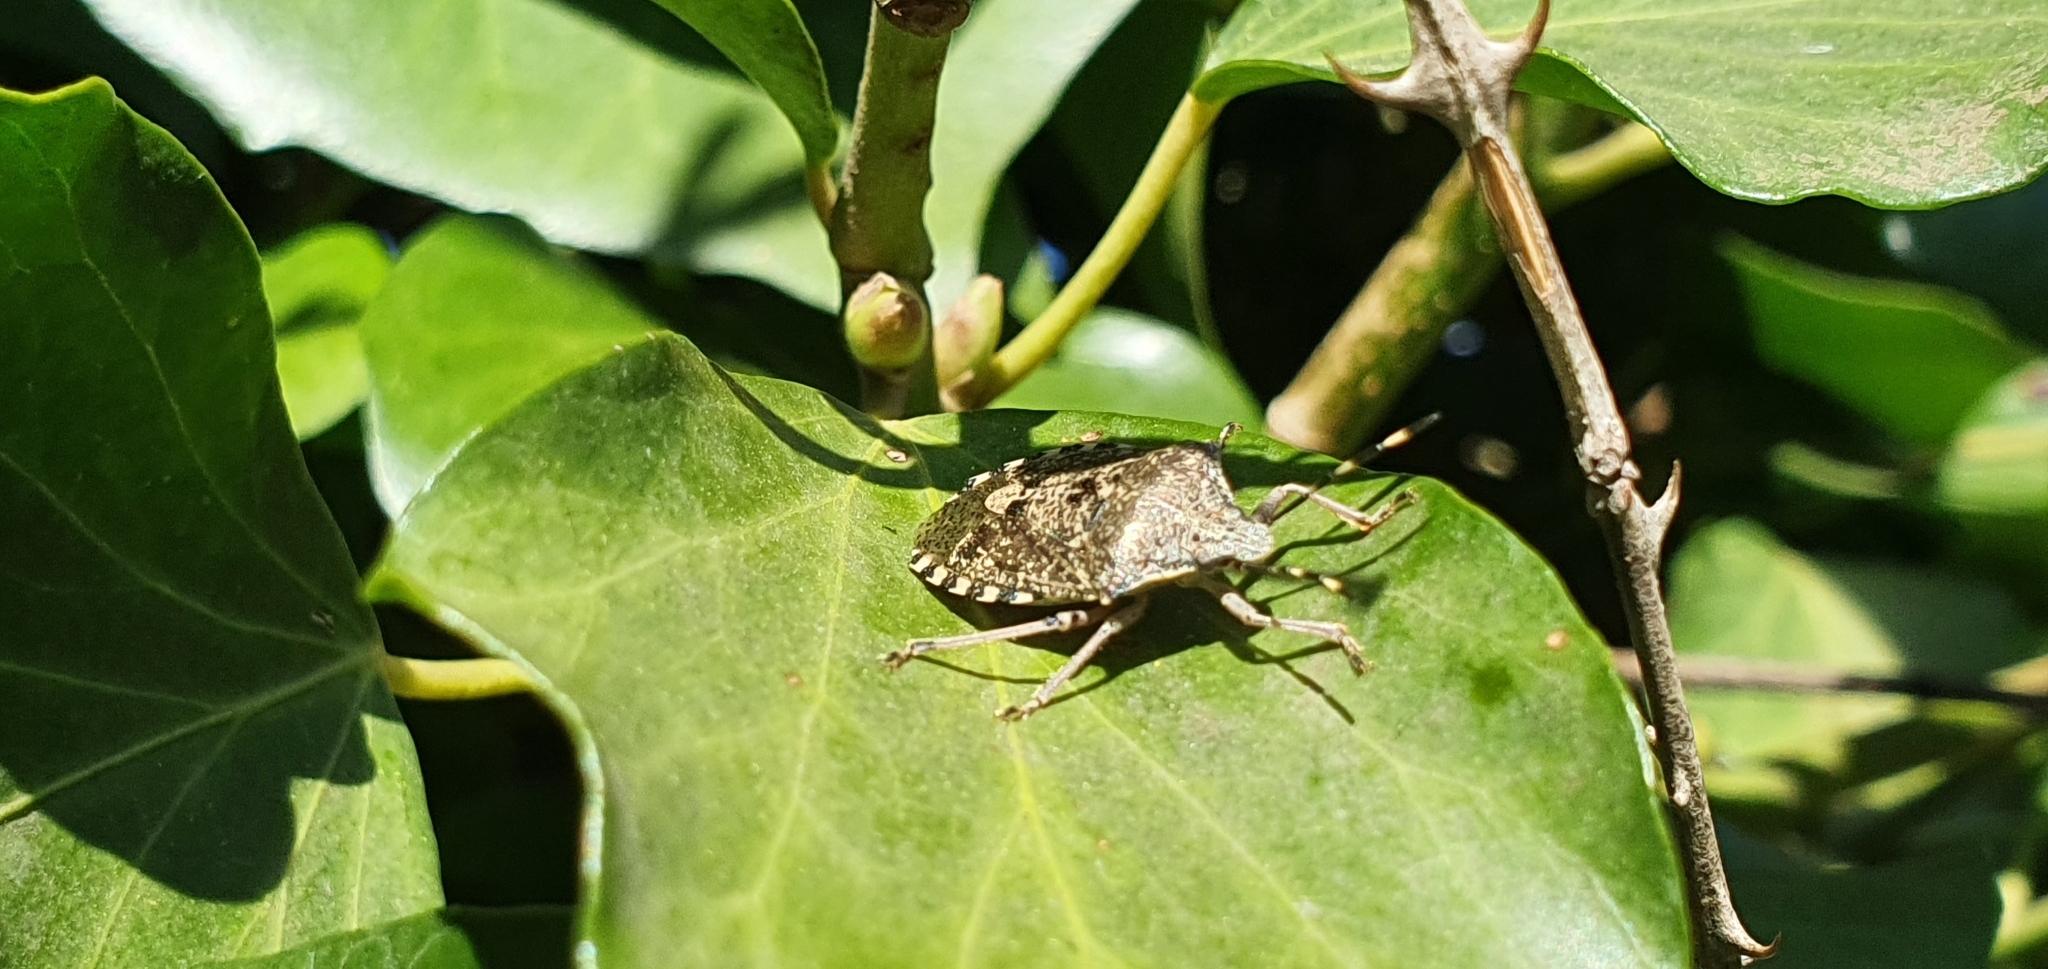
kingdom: Animalia
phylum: Arthropoda
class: Insecta
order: Hemiptera
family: Pentatomidae
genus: Rhaphigaster
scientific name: Rhaphigaster nebulosa
